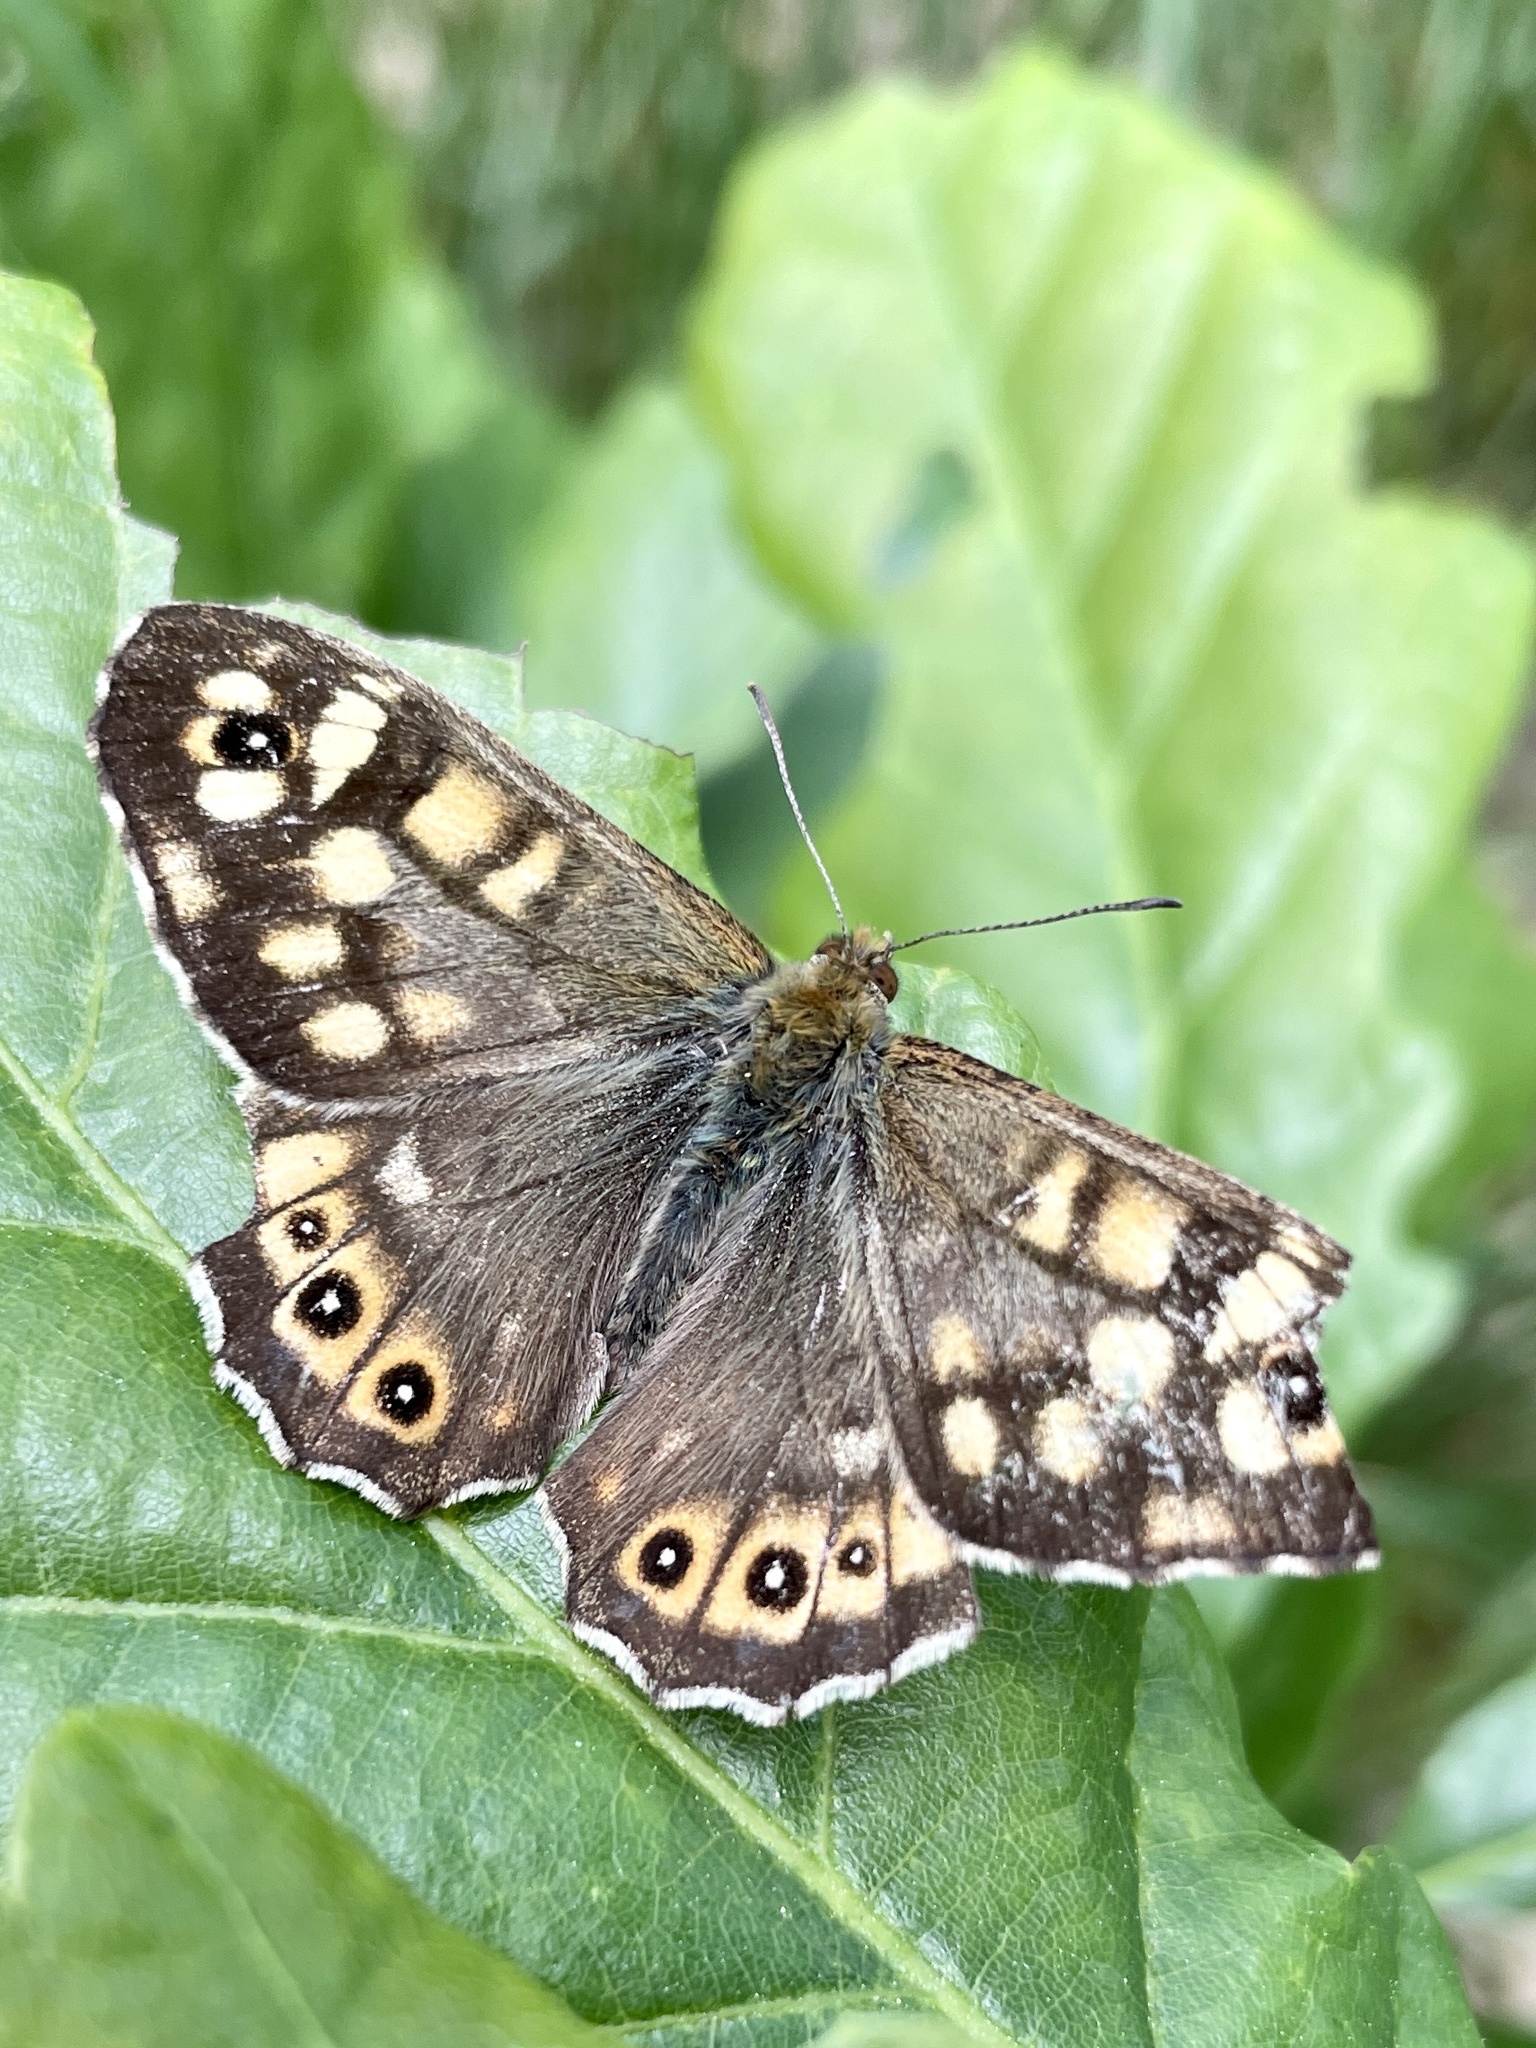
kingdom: Animalia
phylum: Arthropoda
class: Insecta
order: Lepidoptera
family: Nymphalidae
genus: Pararge
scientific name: Pararge aegeria
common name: Speckled wood
